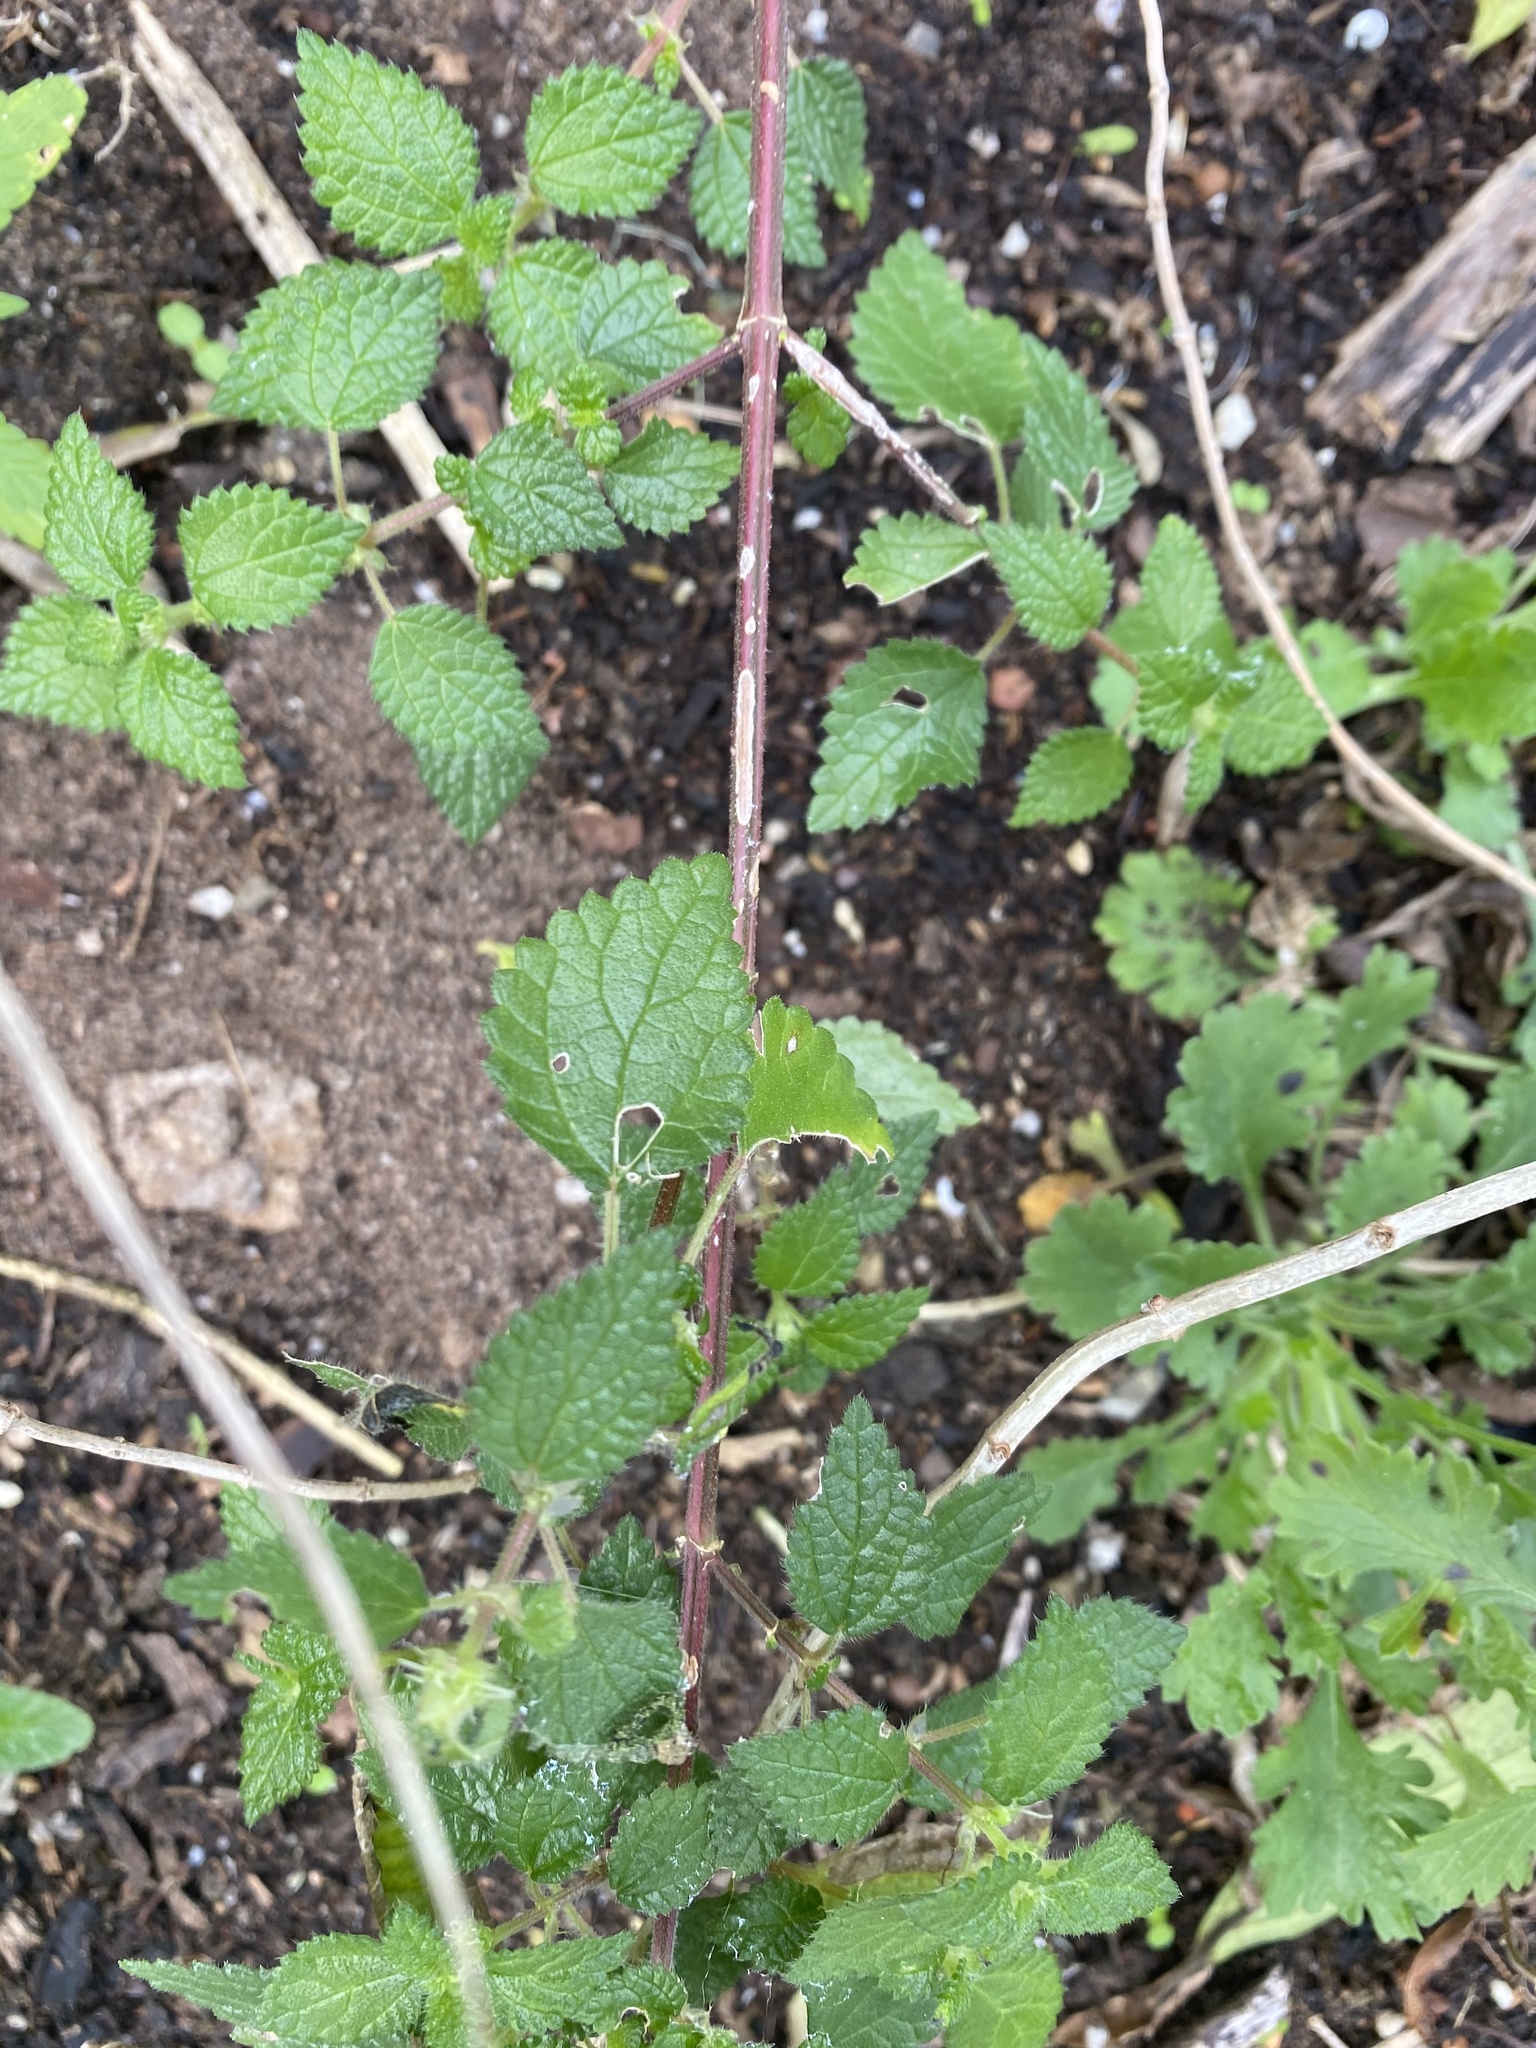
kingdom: Plantae
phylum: Tracheophyta
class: Magnoliopsida
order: Rosales
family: Urticaceae
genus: Droguetia
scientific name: Droguetia iners
